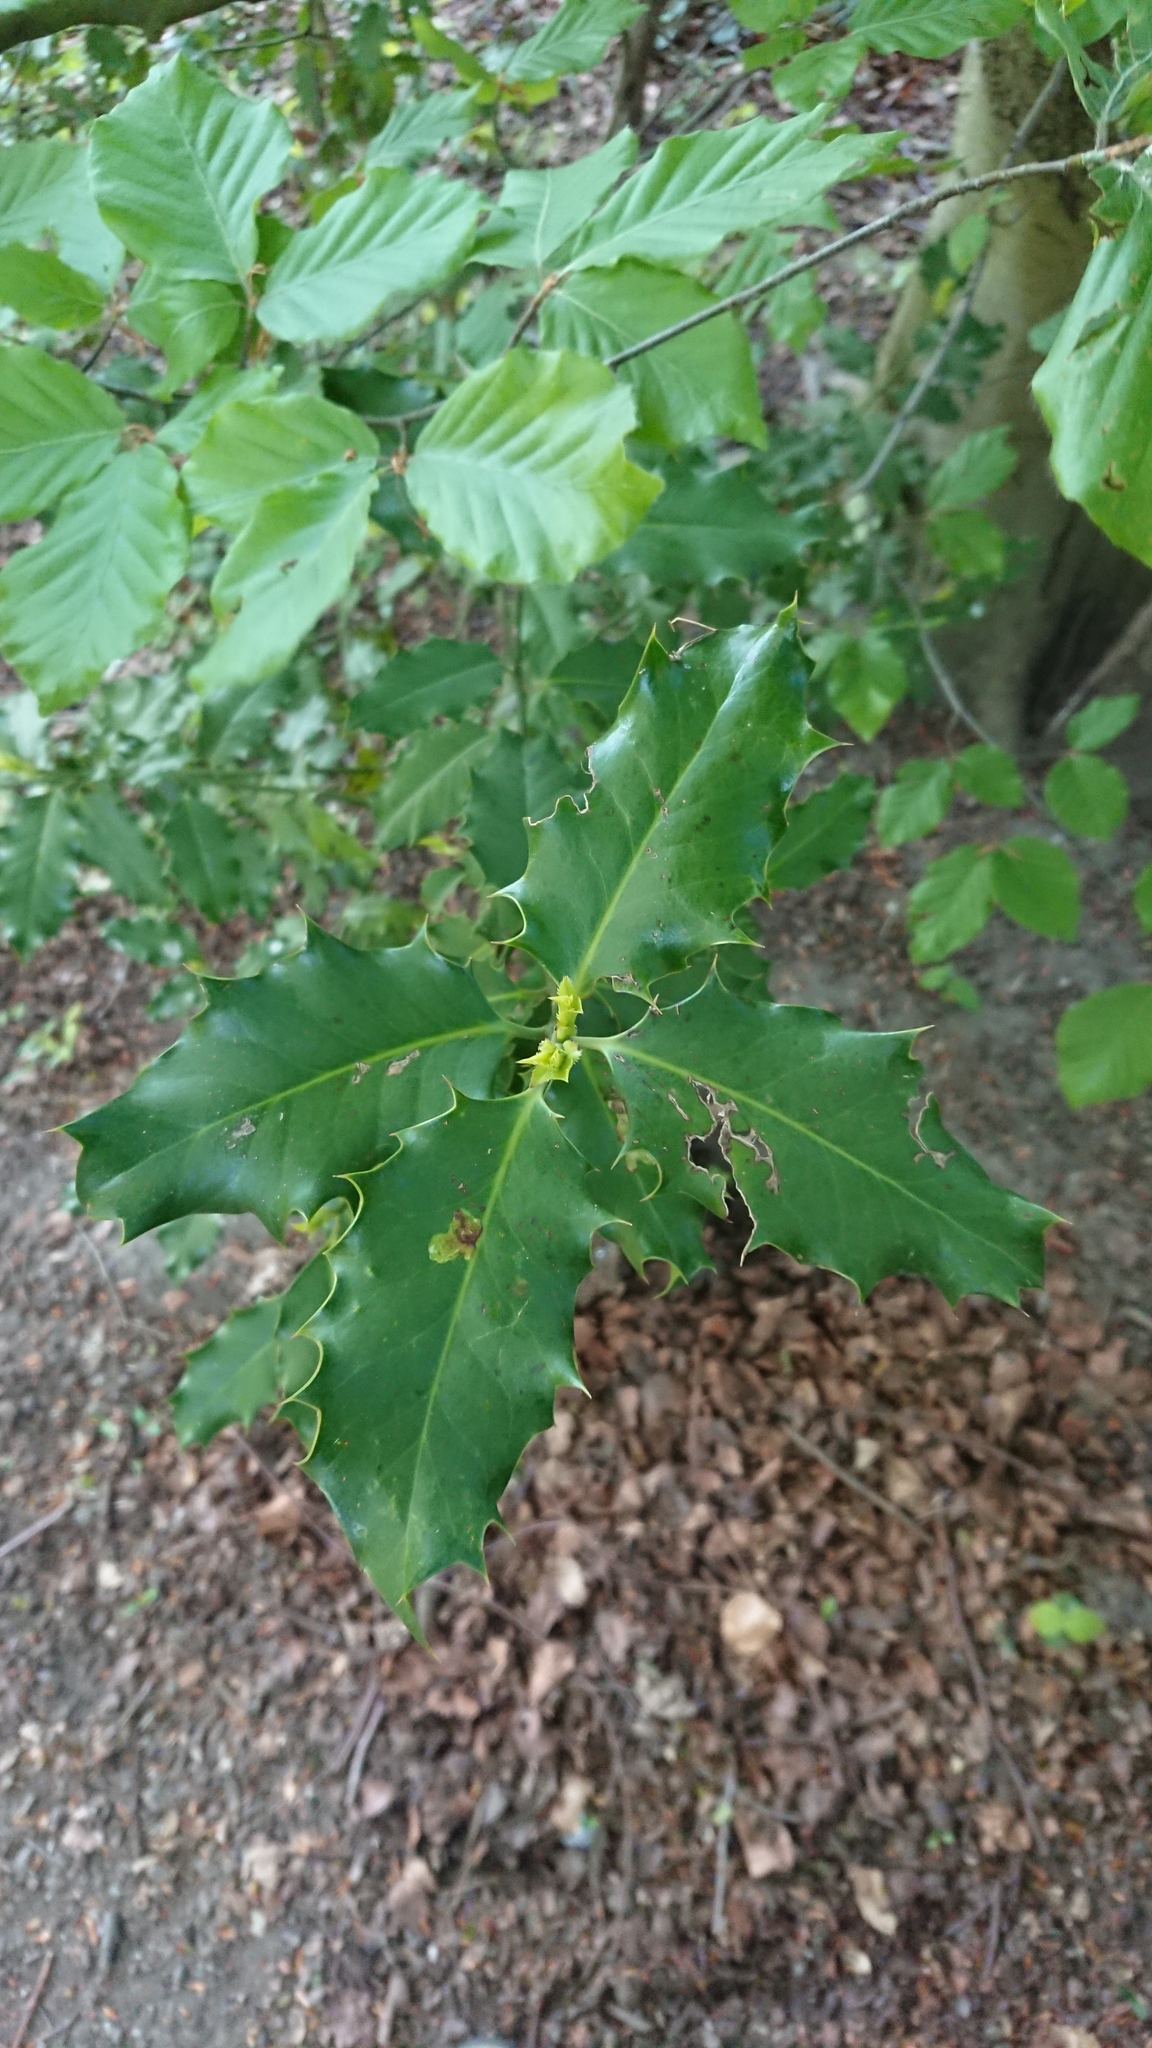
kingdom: Plantae
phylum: Tracheophyta
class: Magnoliopsida
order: Aquifoliales
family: Aquifoliaceae
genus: Ilex
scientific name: Ilex aquifolium
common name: English holly
